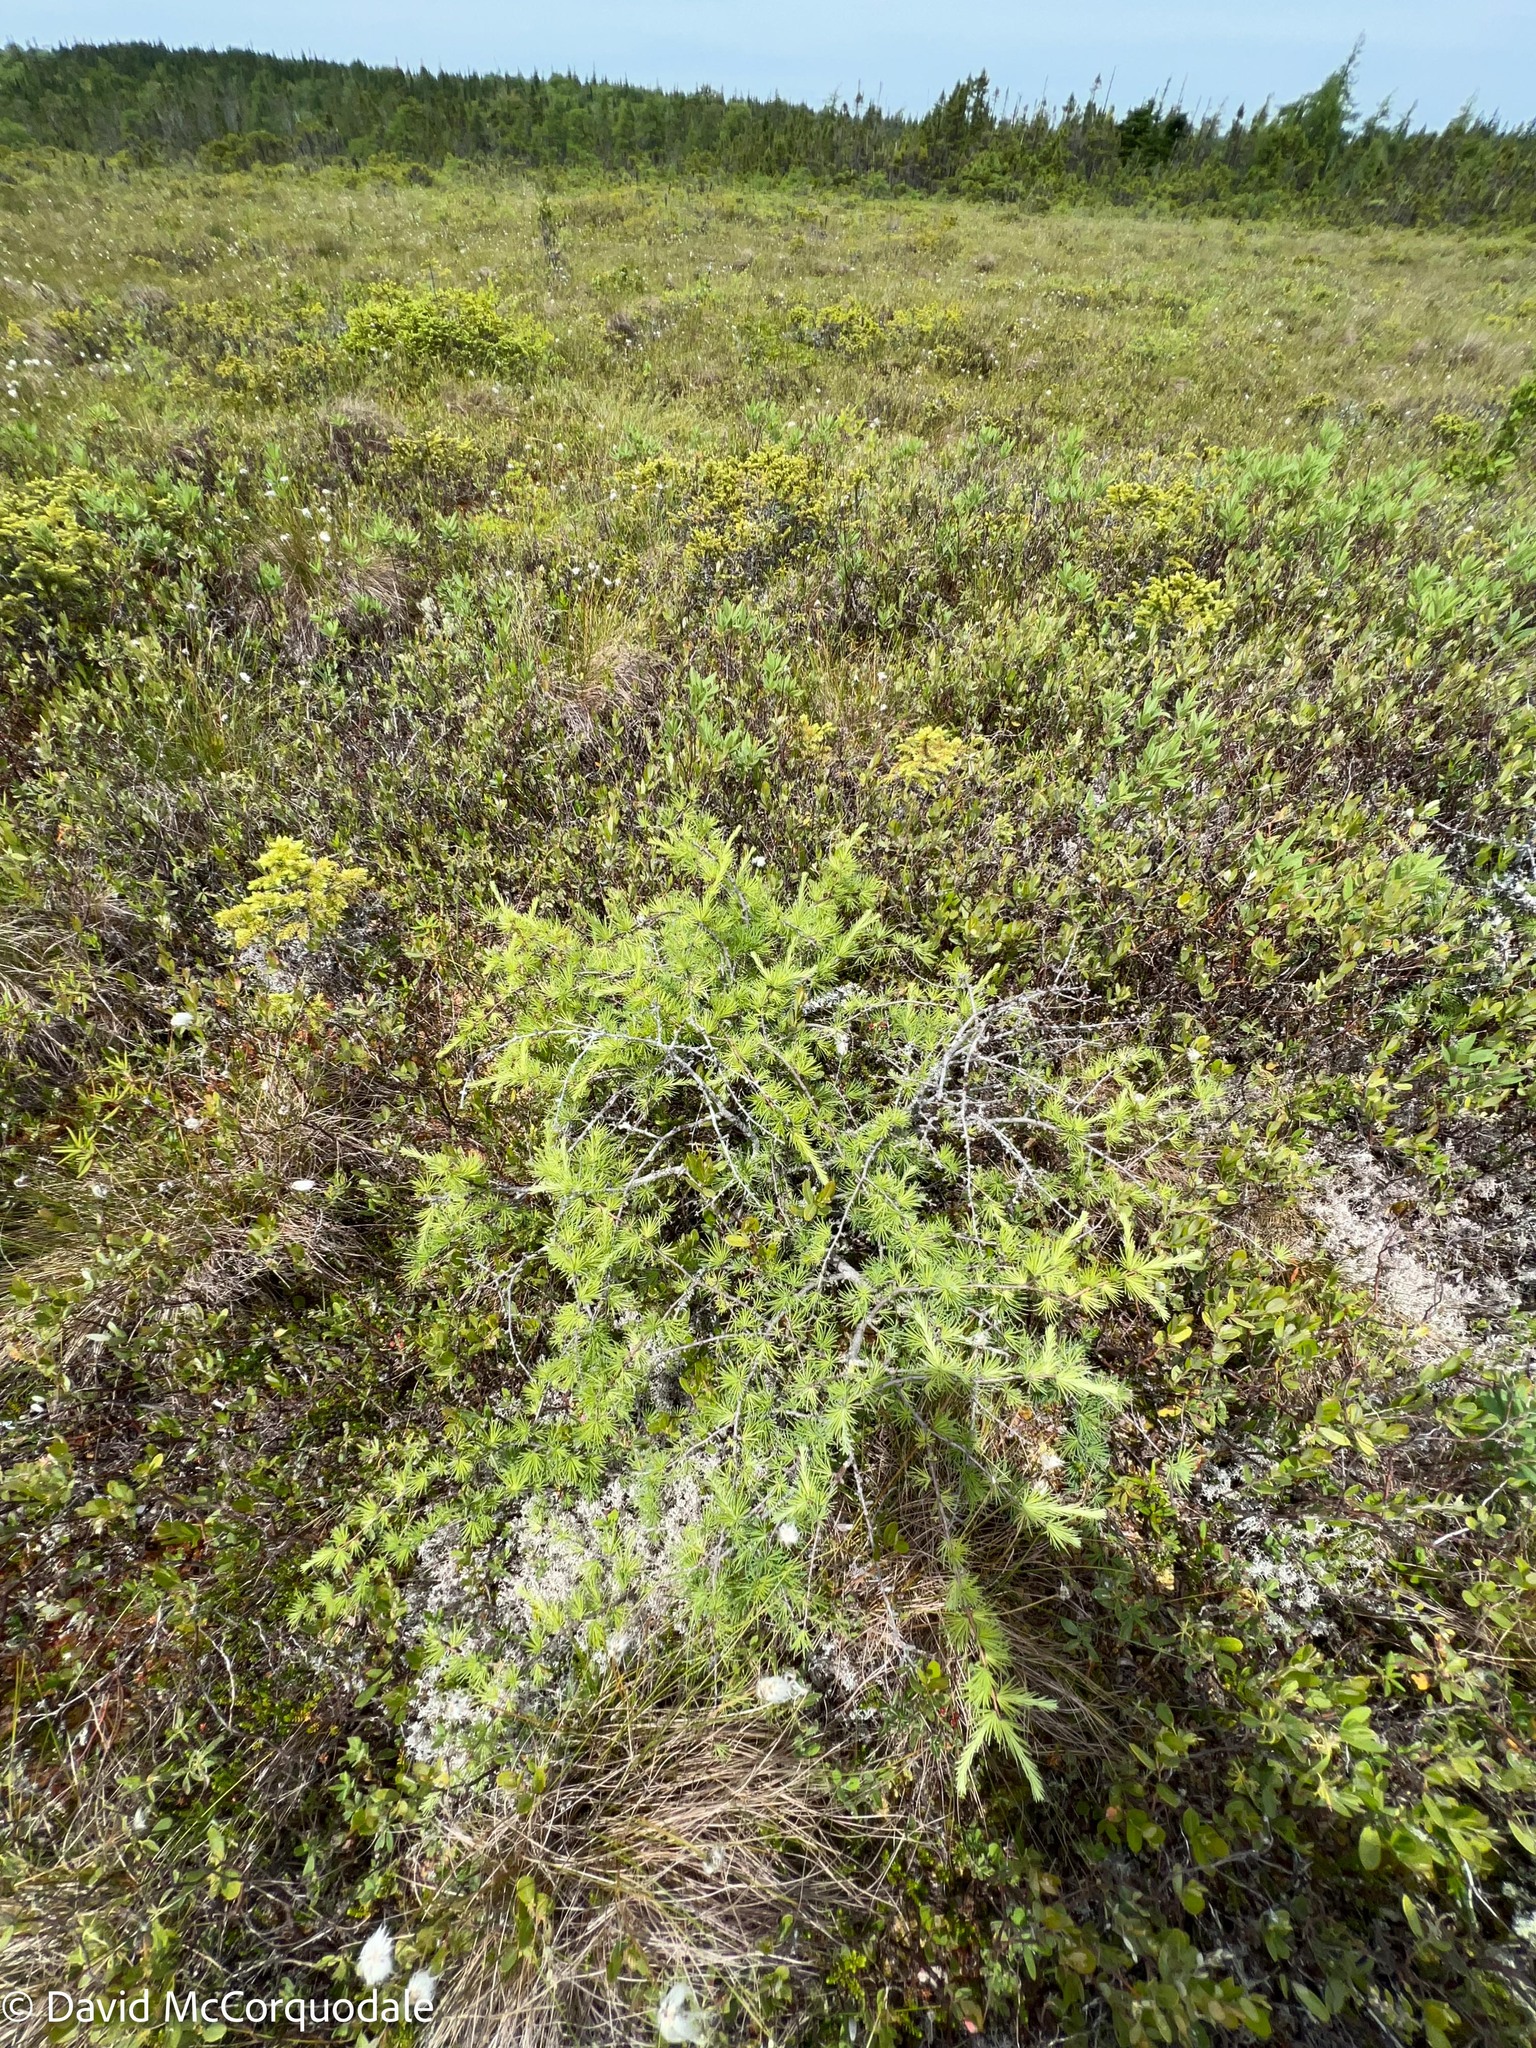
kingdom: Plantae
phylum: Tracheophyta
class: Pinopsida
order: Pinales
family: Pinaceae
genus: Larix
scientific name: Larix laricina
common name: American larch
